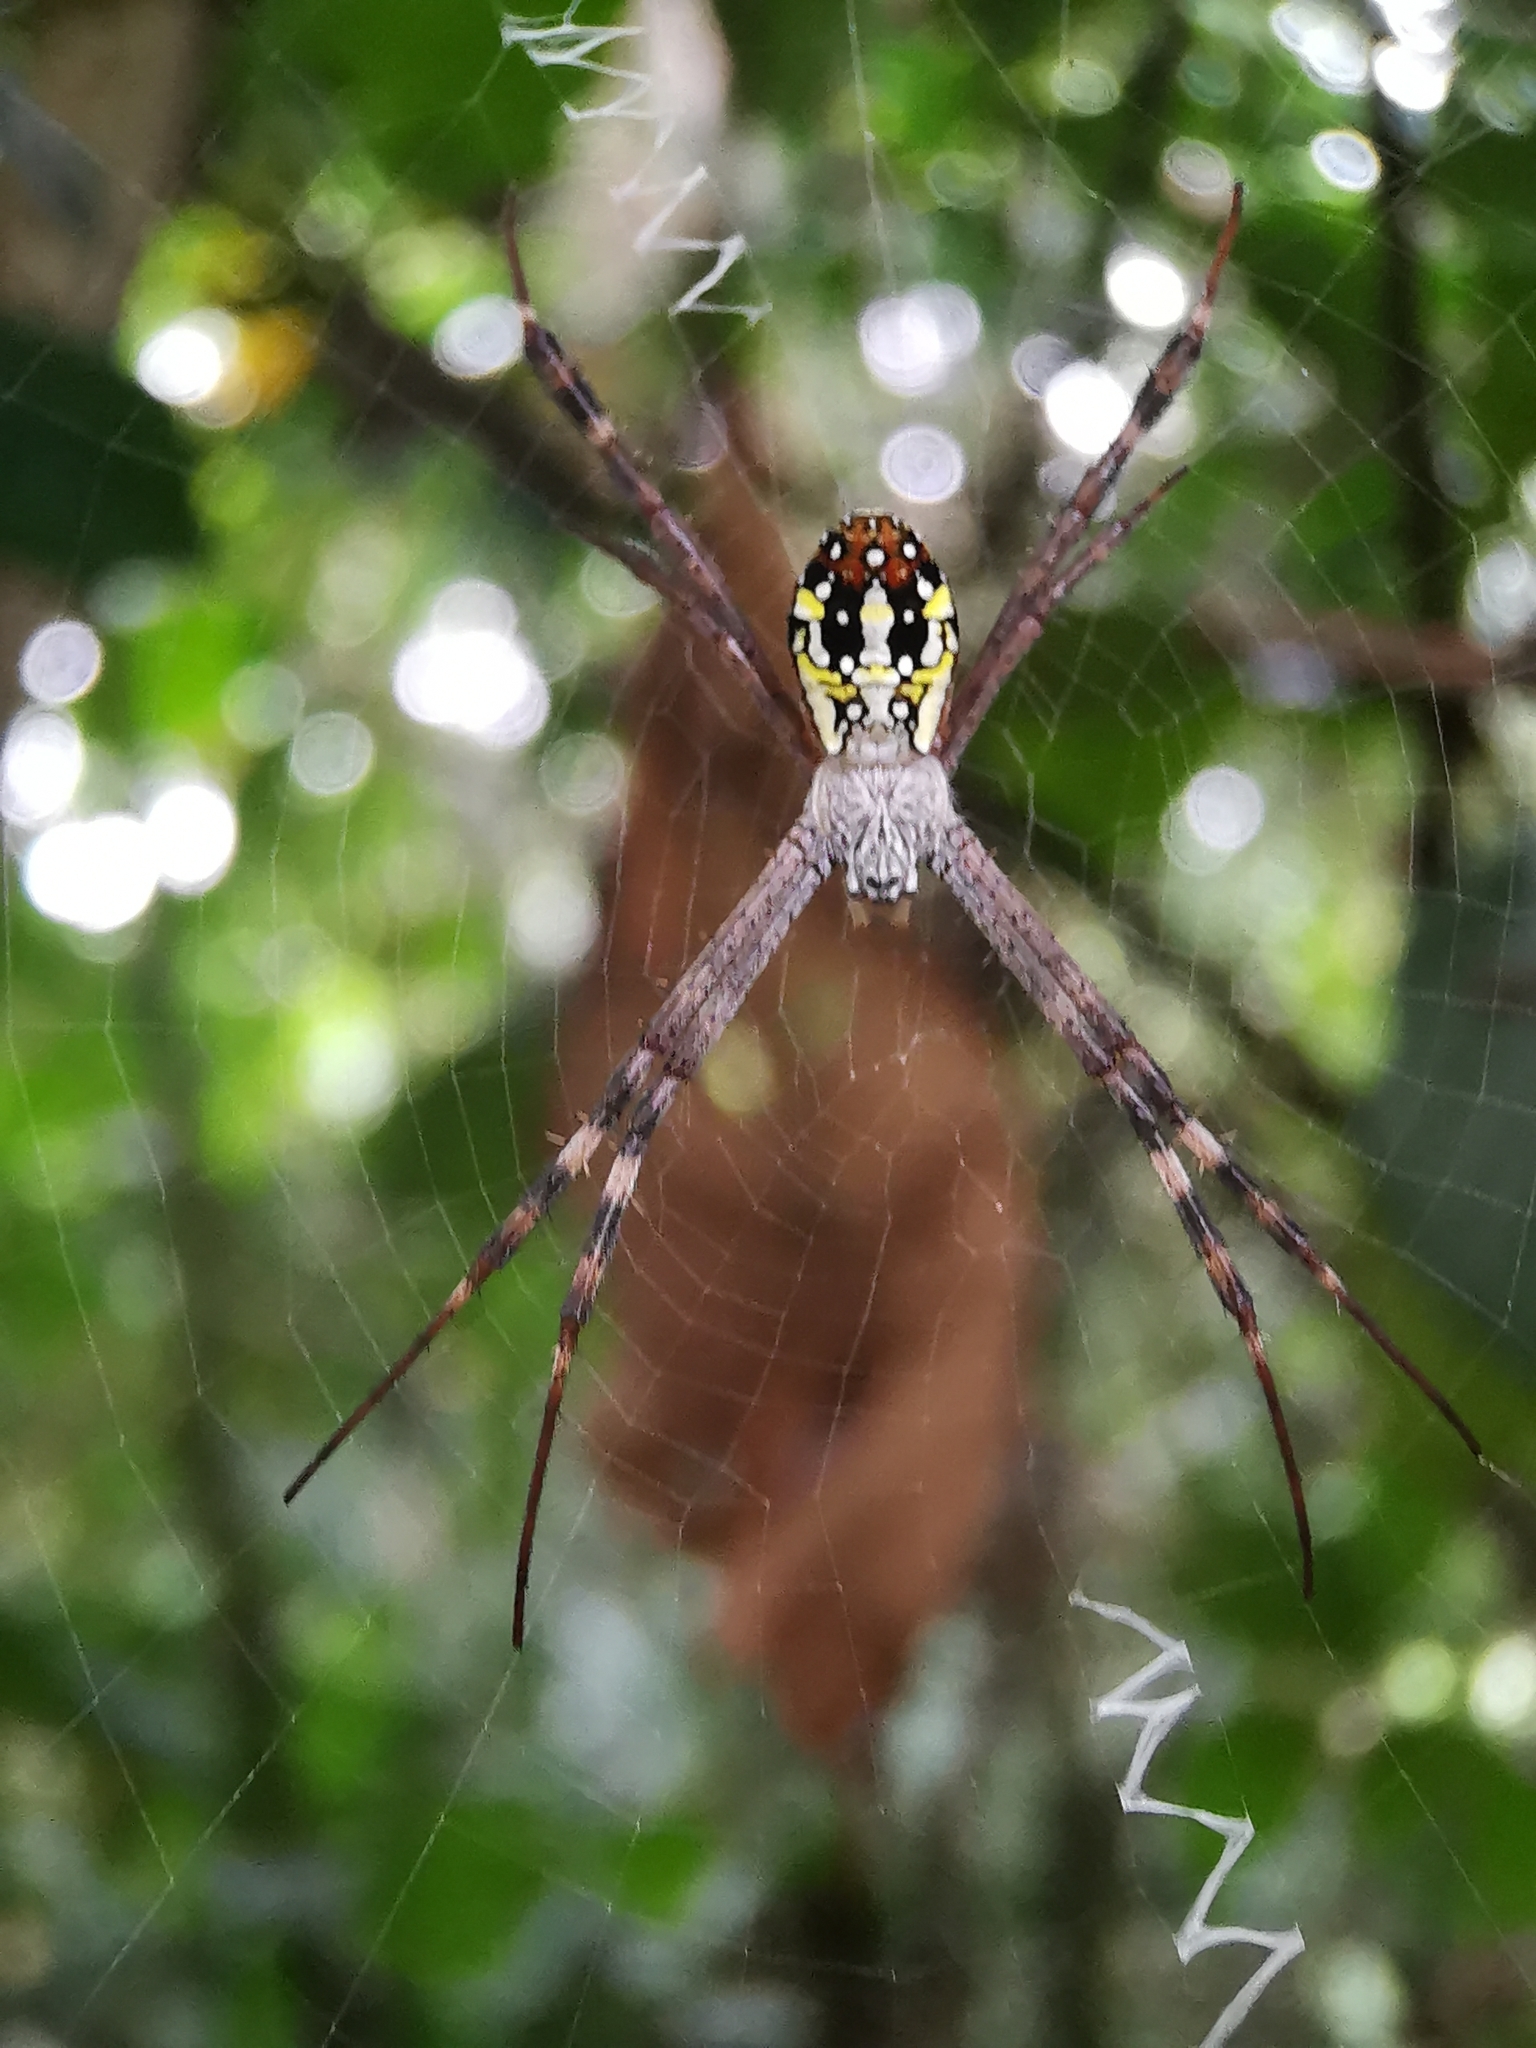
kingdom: Animalia
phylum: Arthropoda
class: Arachnida
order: Araneae
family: Araneidae
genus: Argiope
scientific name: Argiope dang
